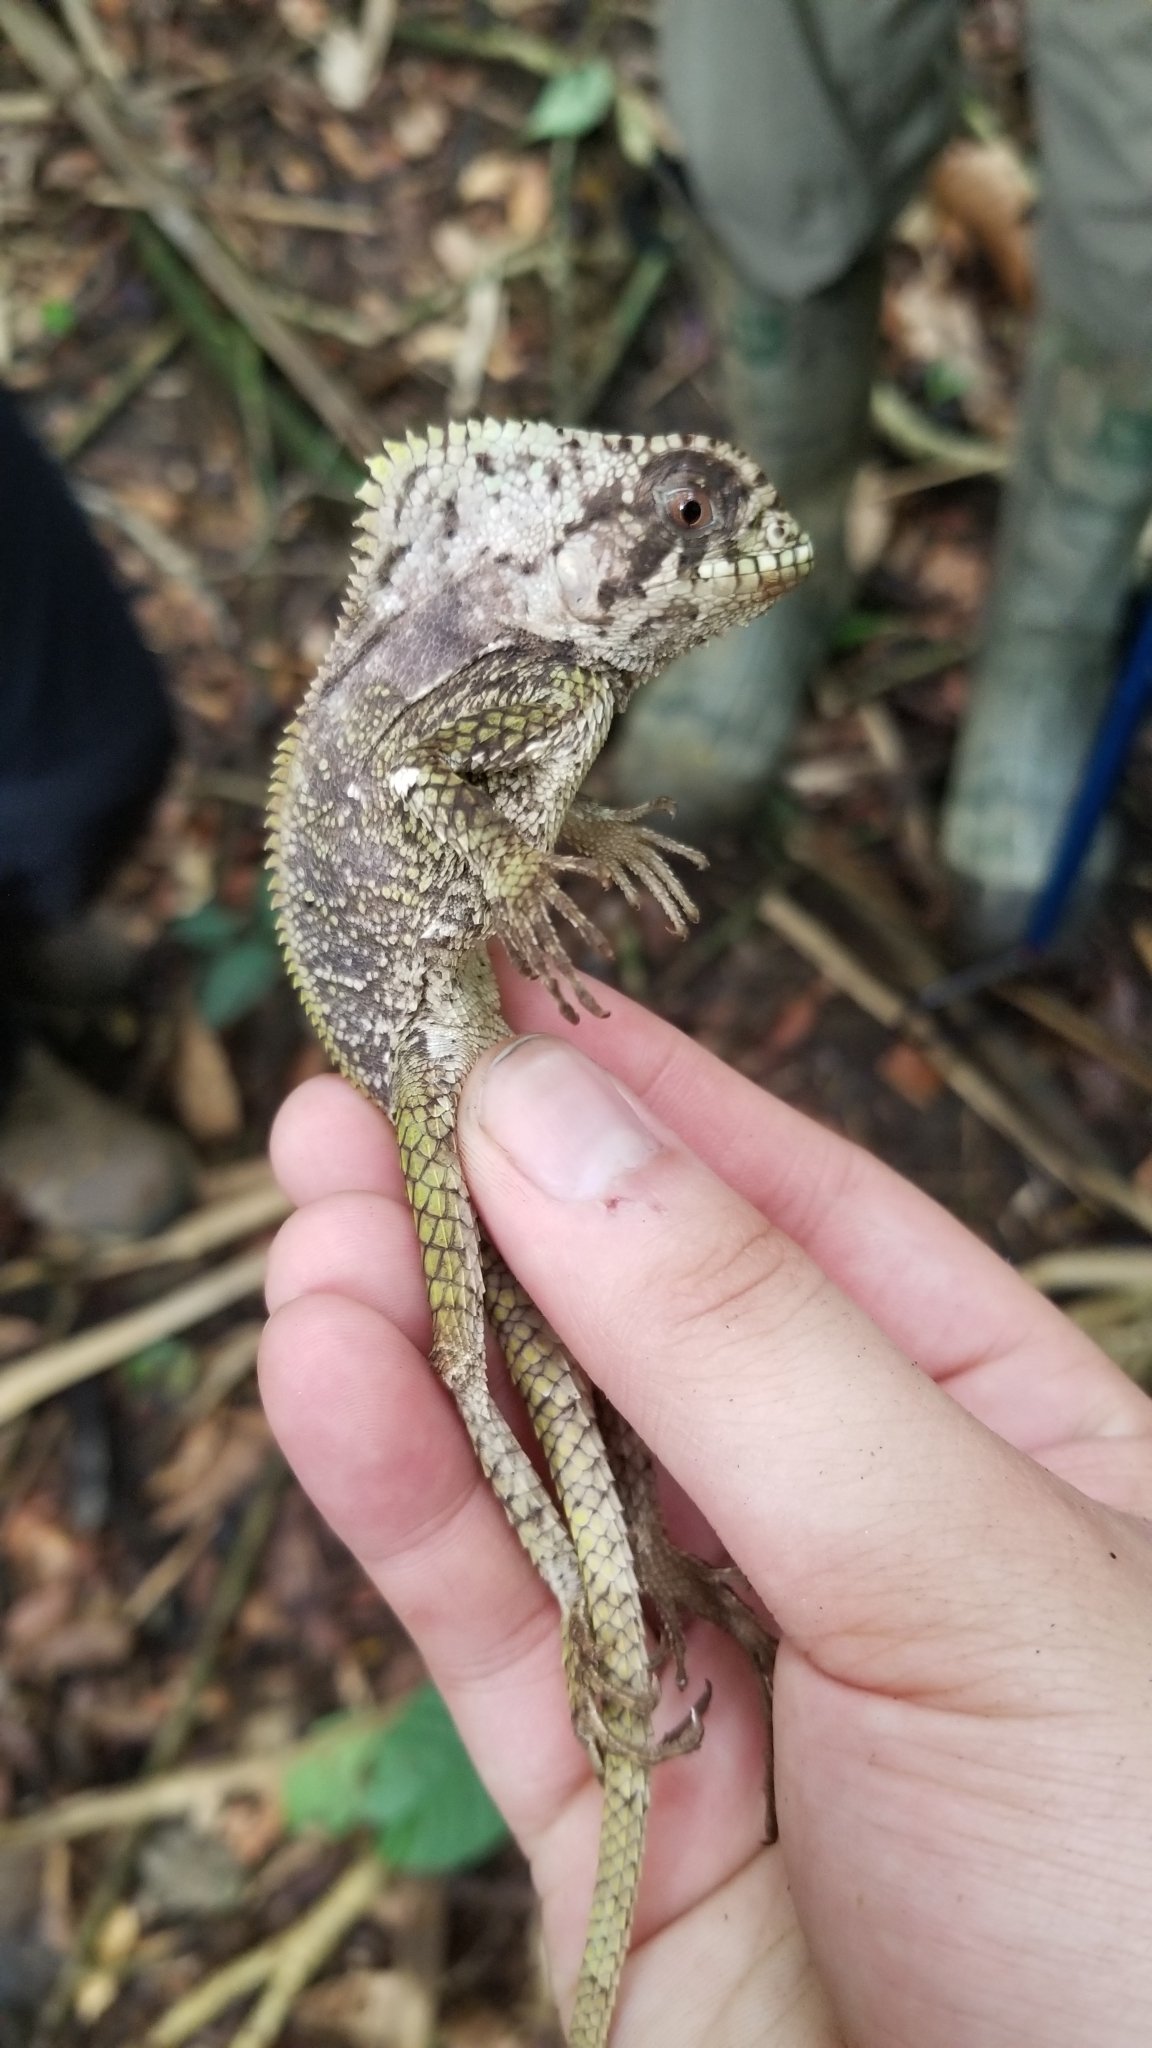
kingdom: Animalia
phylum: Chordata
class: Squamata
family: Corytophanidae
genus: Corytophanes
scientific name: Corytophanes cristatus
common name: Smooth helmeted iguana
